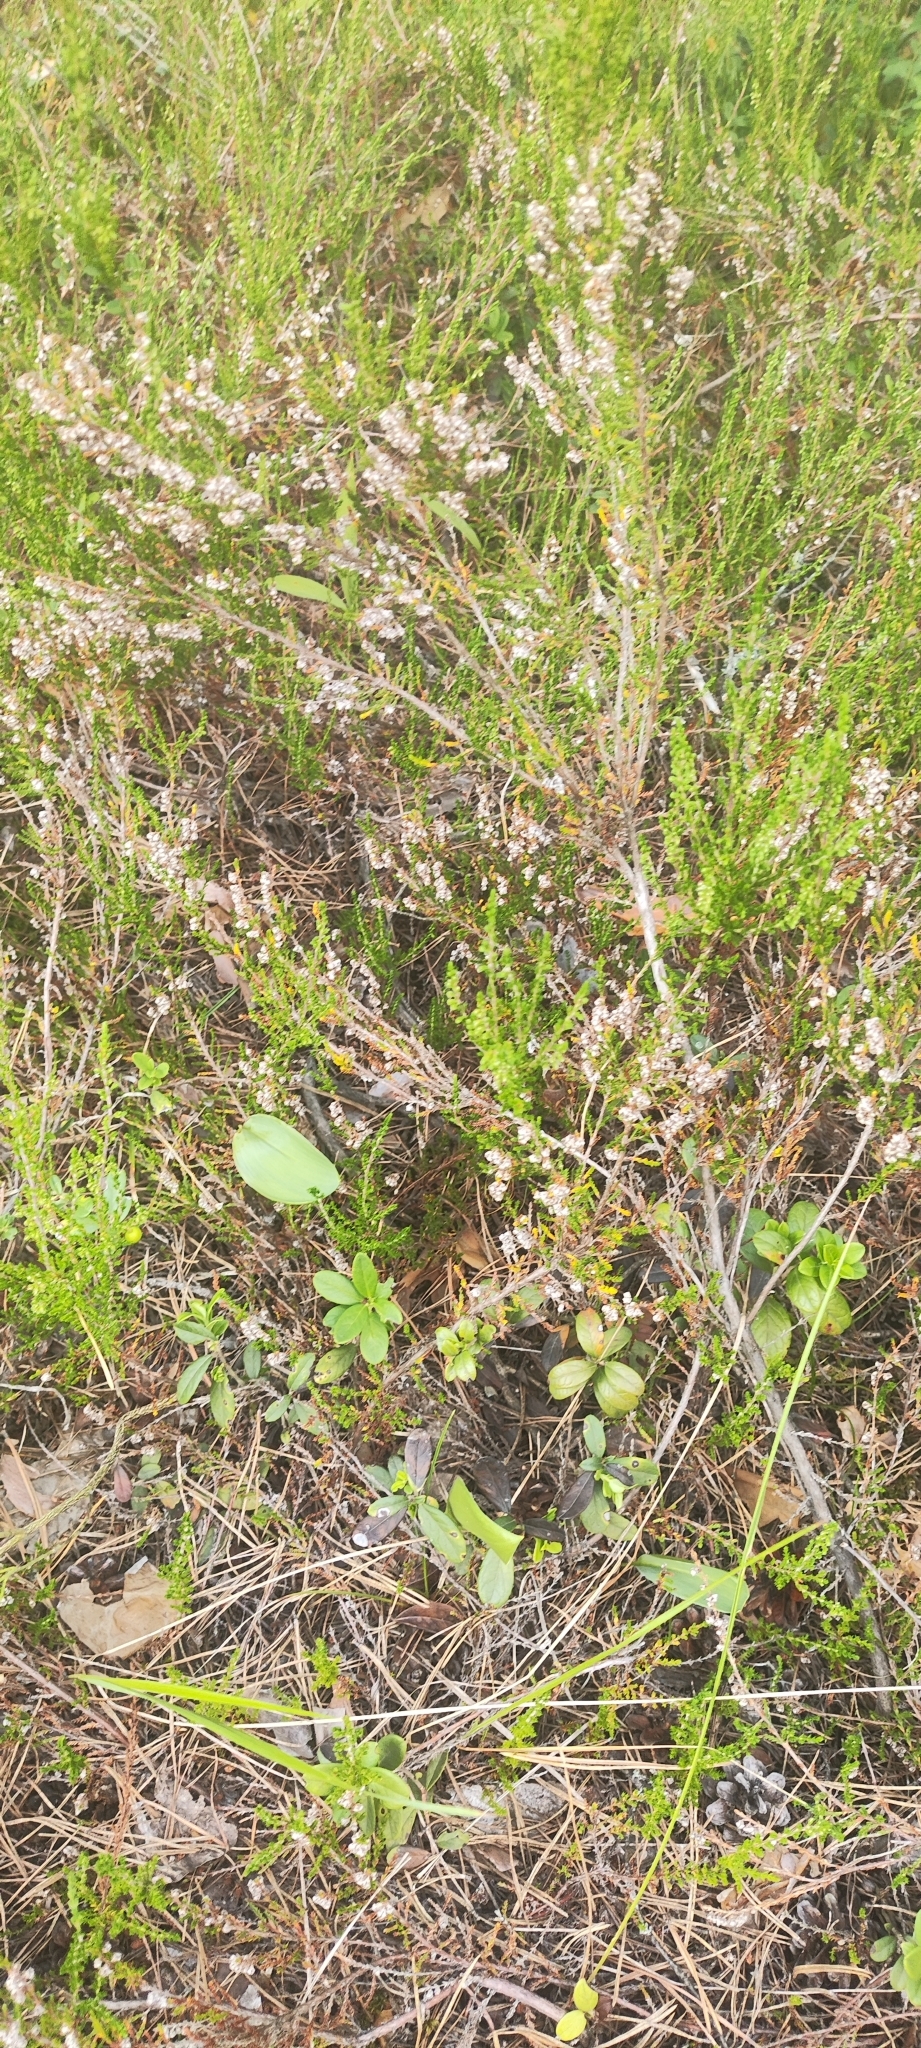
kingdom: Plantae
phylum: Tracheophyta
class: Magnoliopsida
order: Ericales
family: Ericaceae
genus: Calluna
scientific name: Calluna vulgaris
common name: Heather
